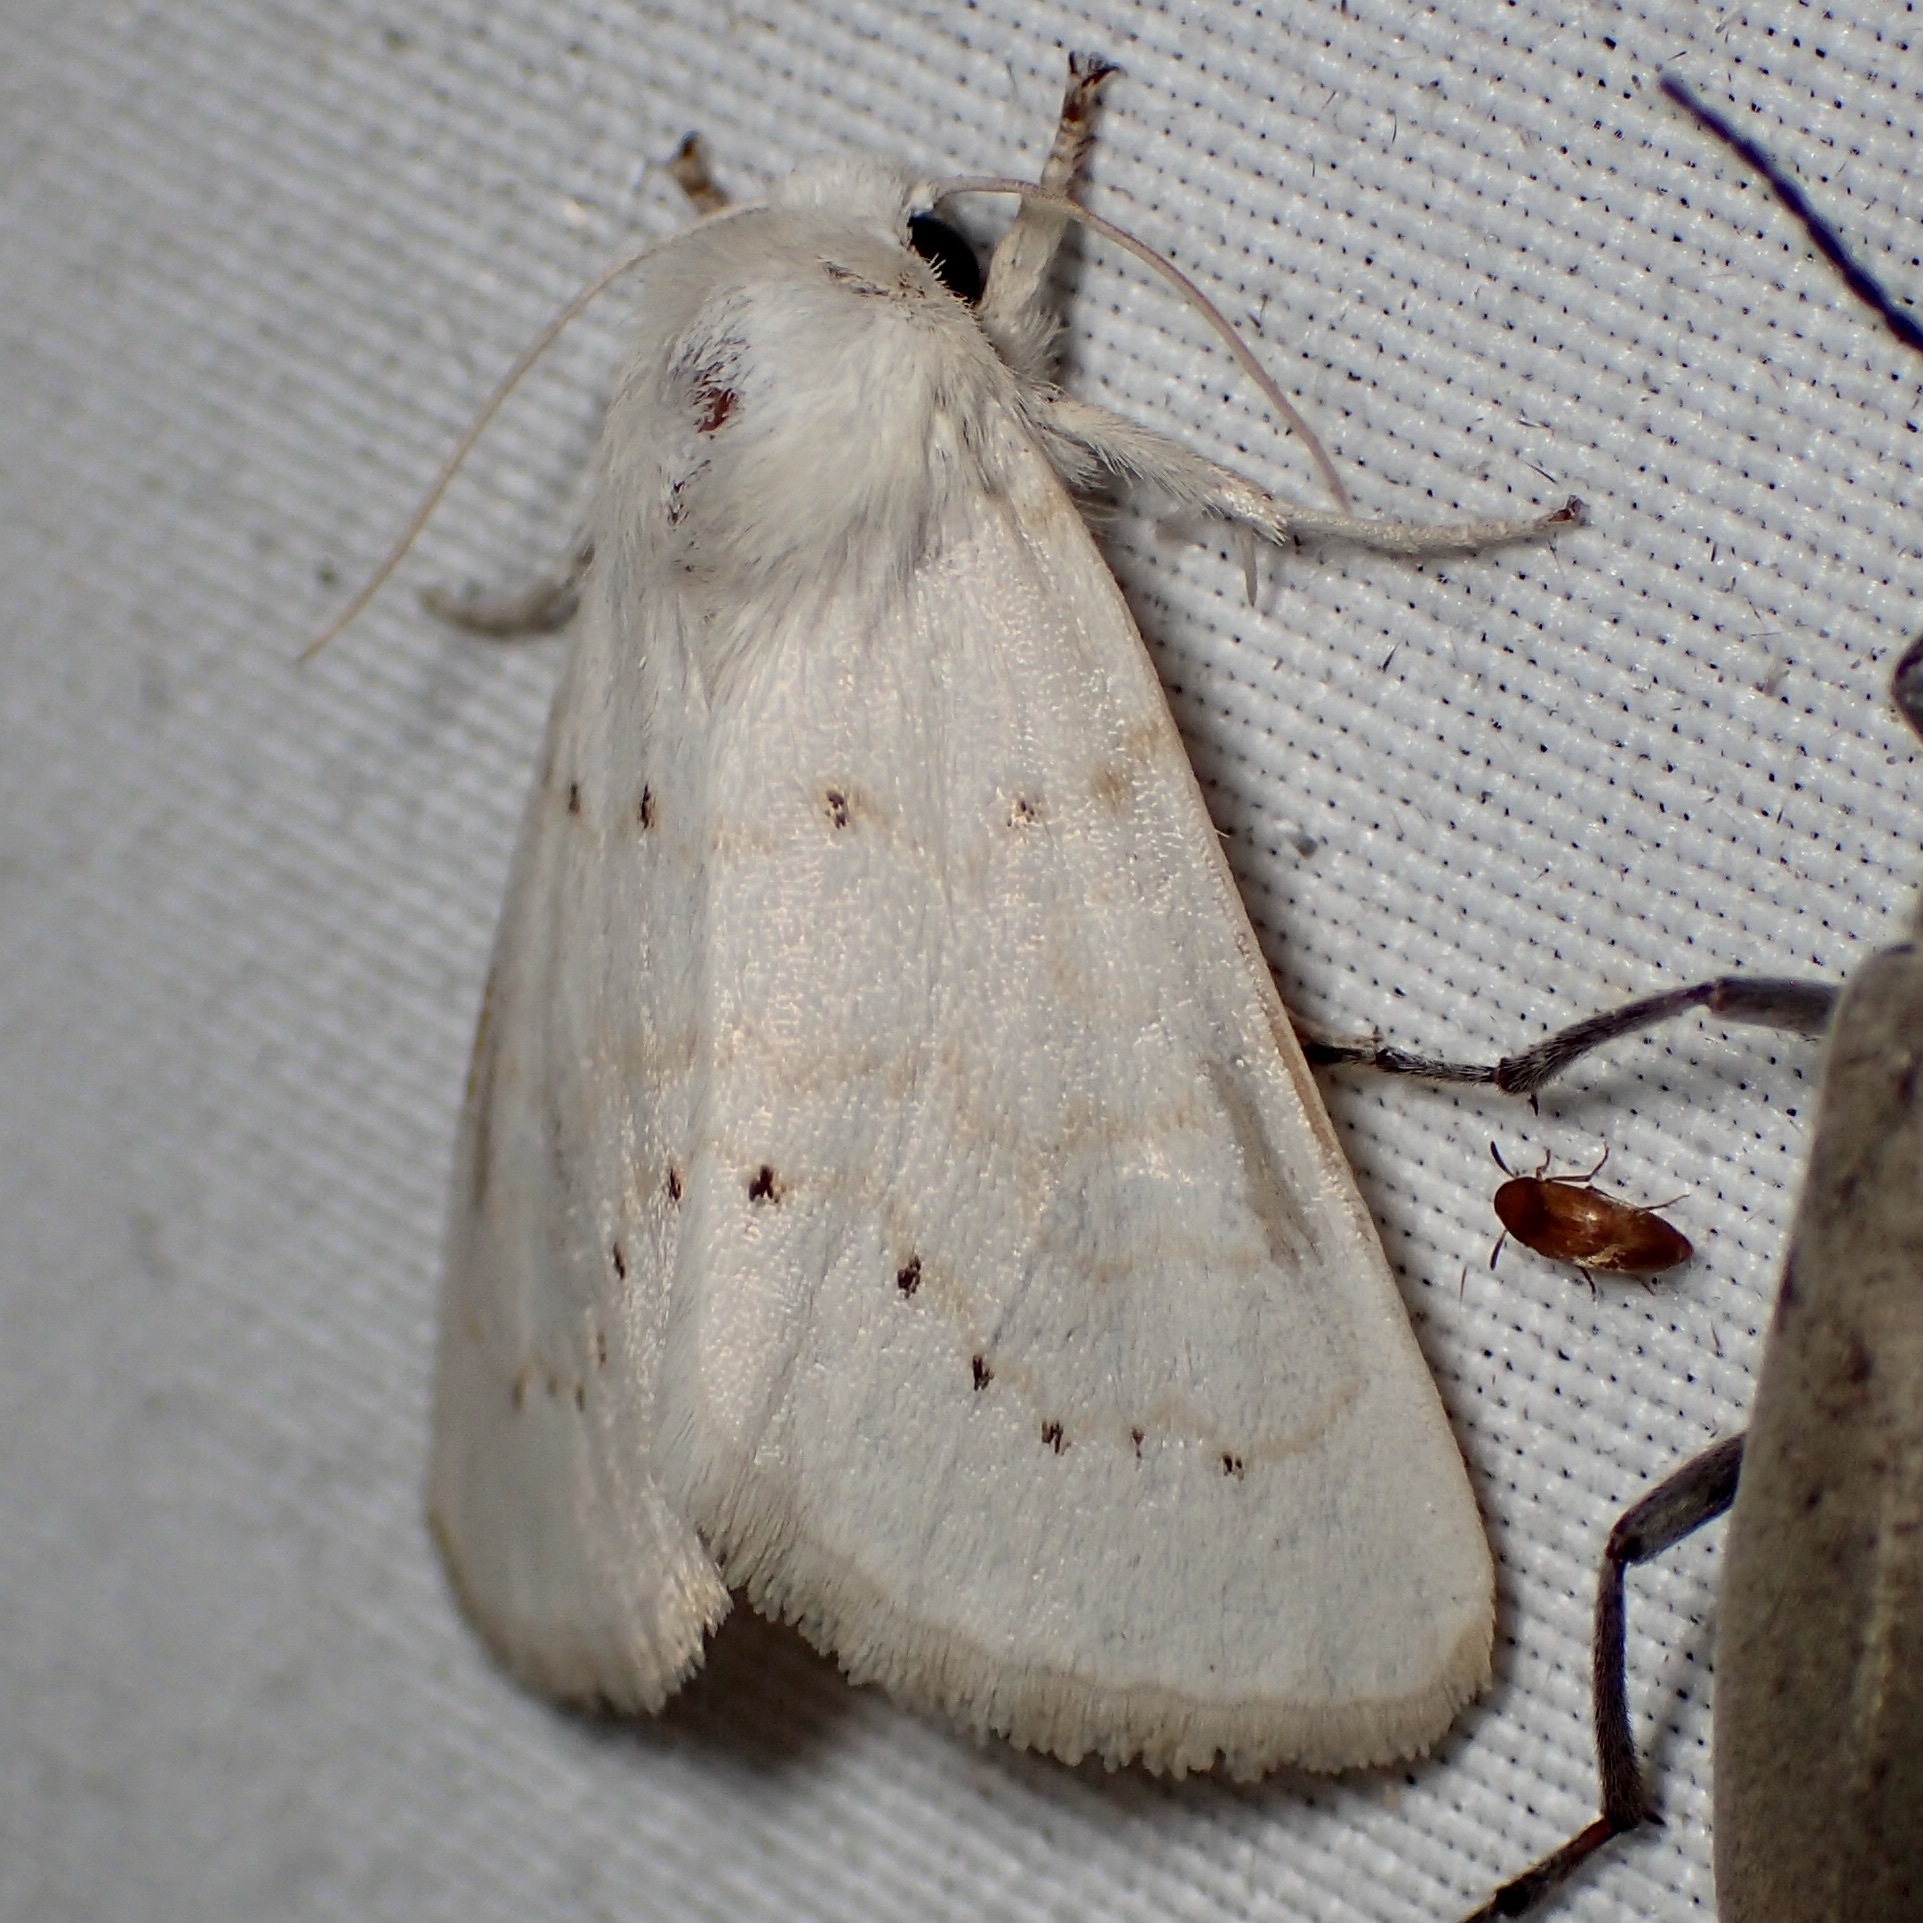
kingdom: Animalia
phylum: Arthropoda
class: Insecta
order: Lepidoptera
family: Noctuidae
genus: Oslaria
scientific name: Oslaria pura
